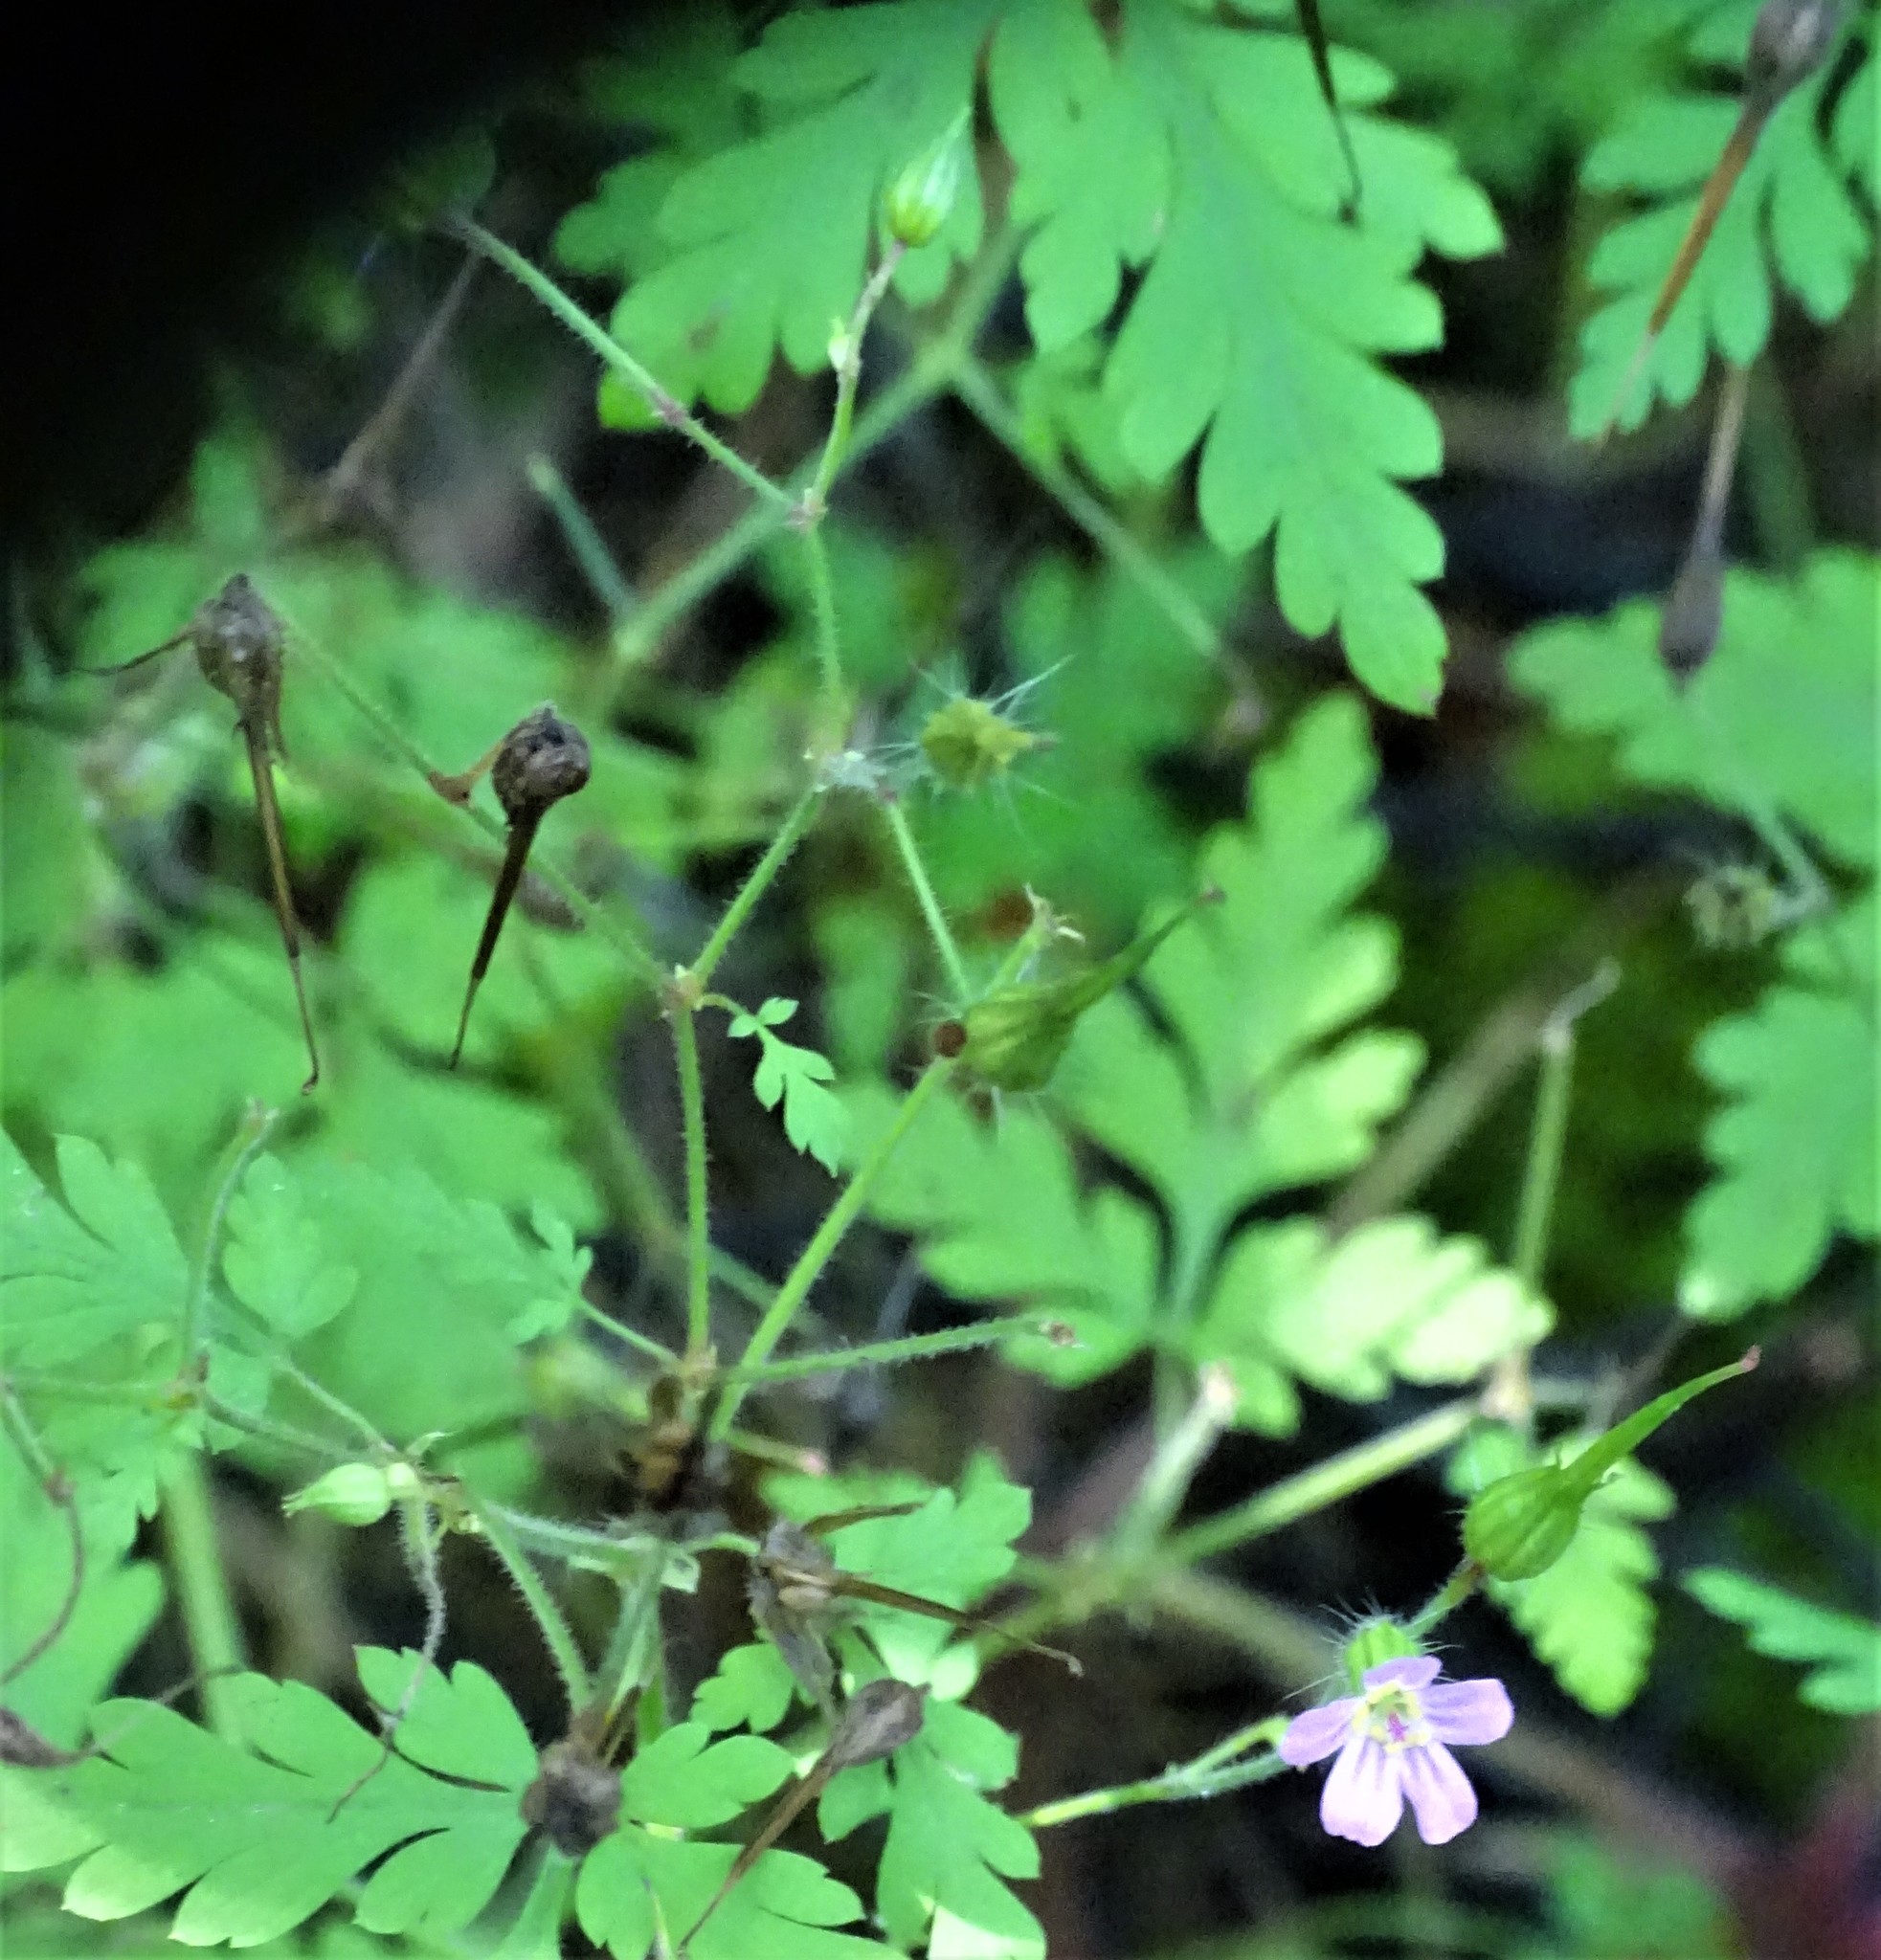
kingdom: Plantae
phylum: Tracheophyta
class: Magnoliopsida
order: Geraniales
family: Geraniaceae
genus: Geranium
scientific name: Geranium robertianum
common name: Herb-robert
